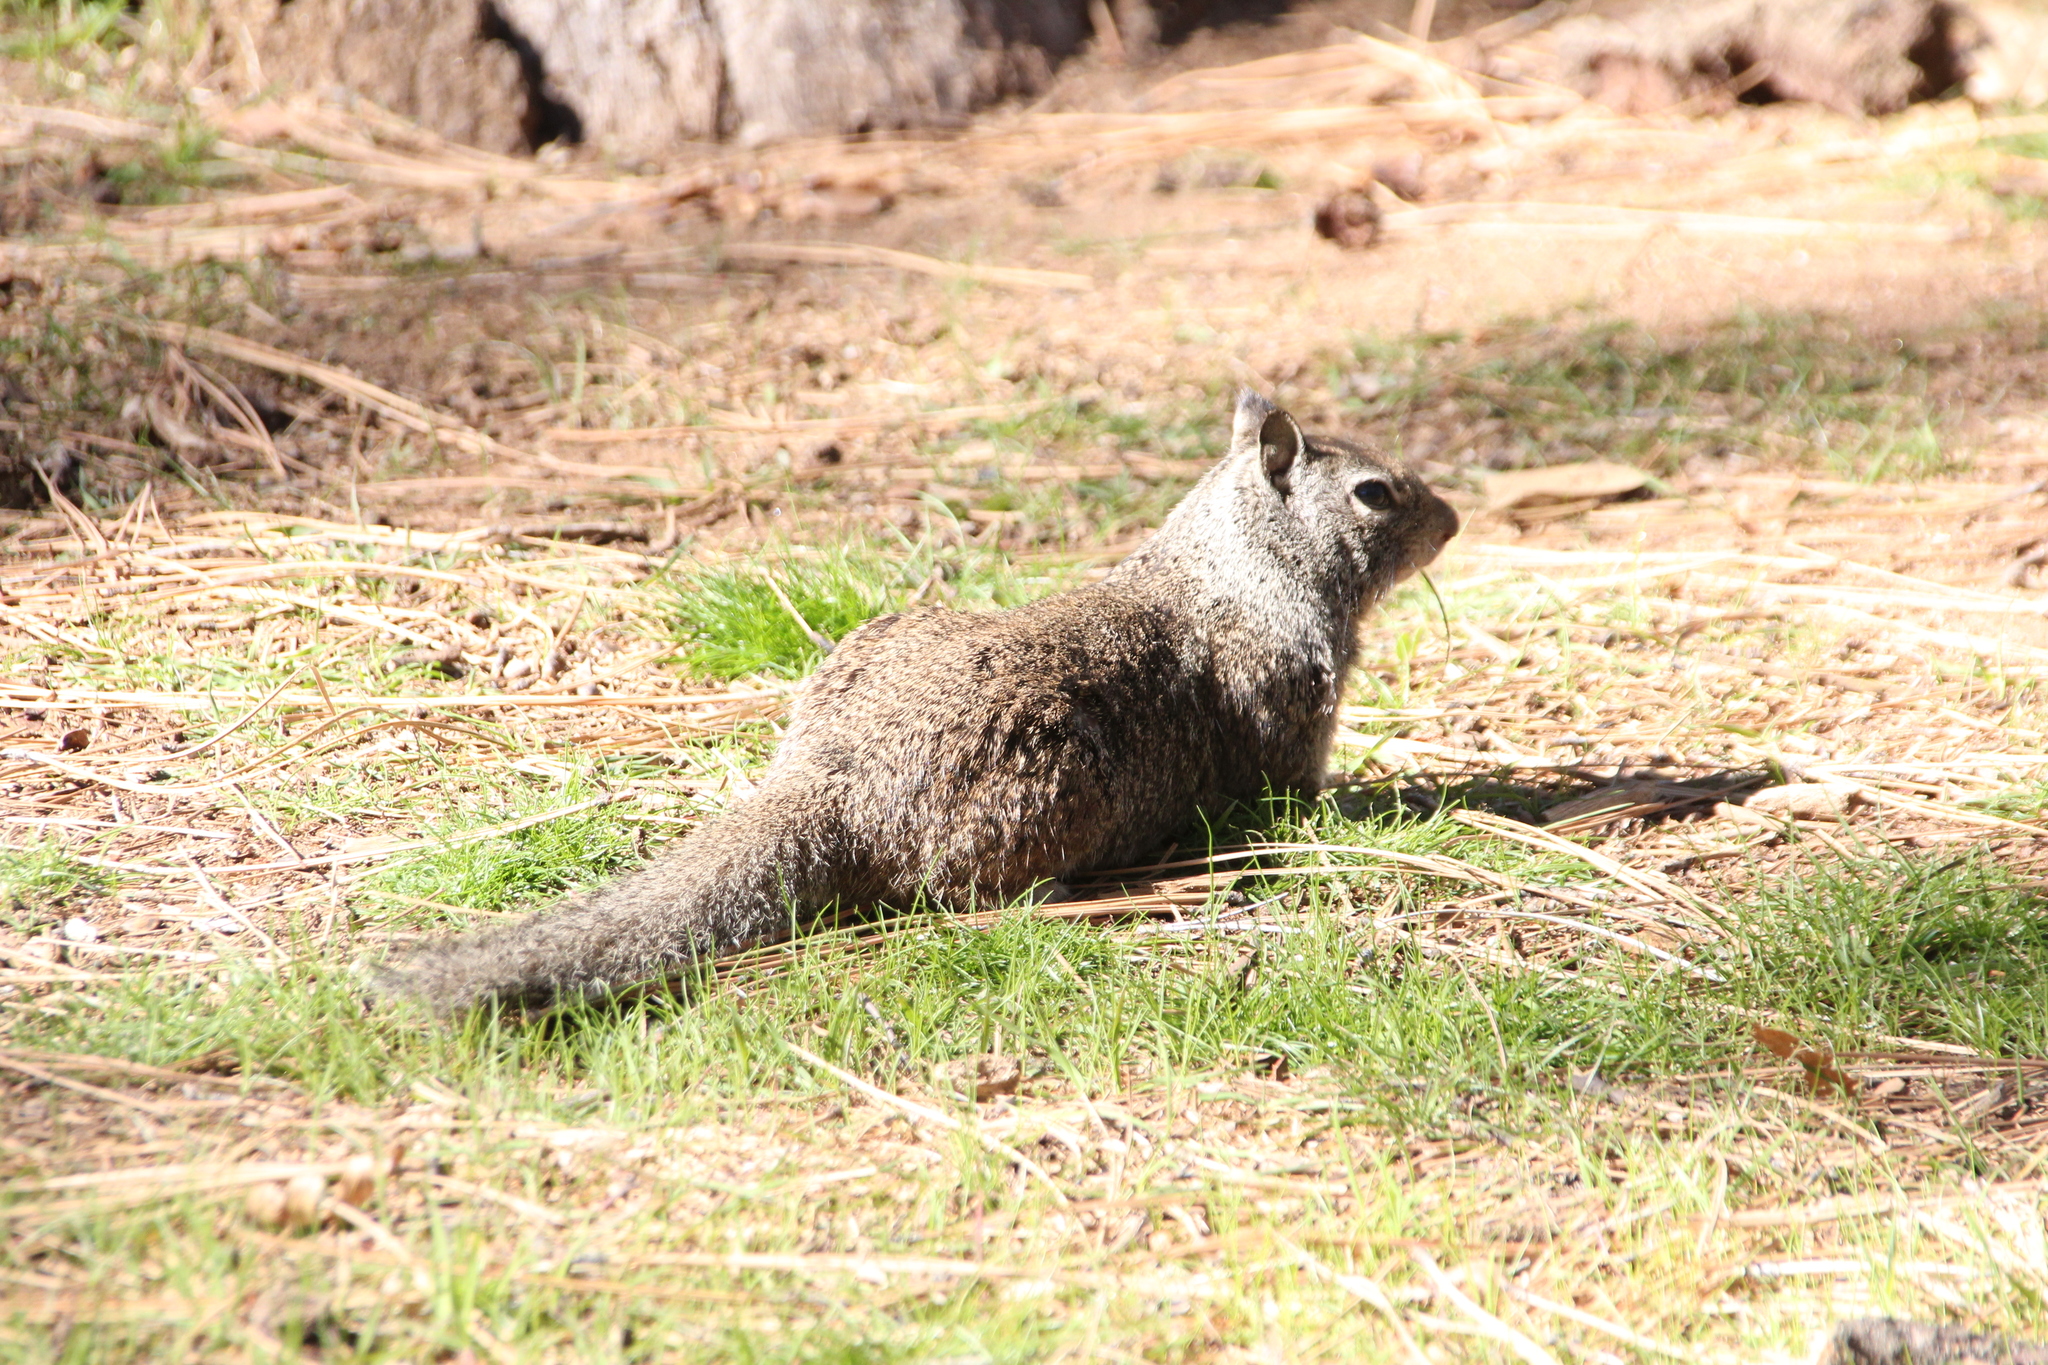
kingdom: Animalia
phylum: Chordata
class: Mammalia
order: Rodentia
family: Sciuridae
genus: Otospermophilus
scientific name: Otospermophilus beecheyi
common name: California ground squirrel
